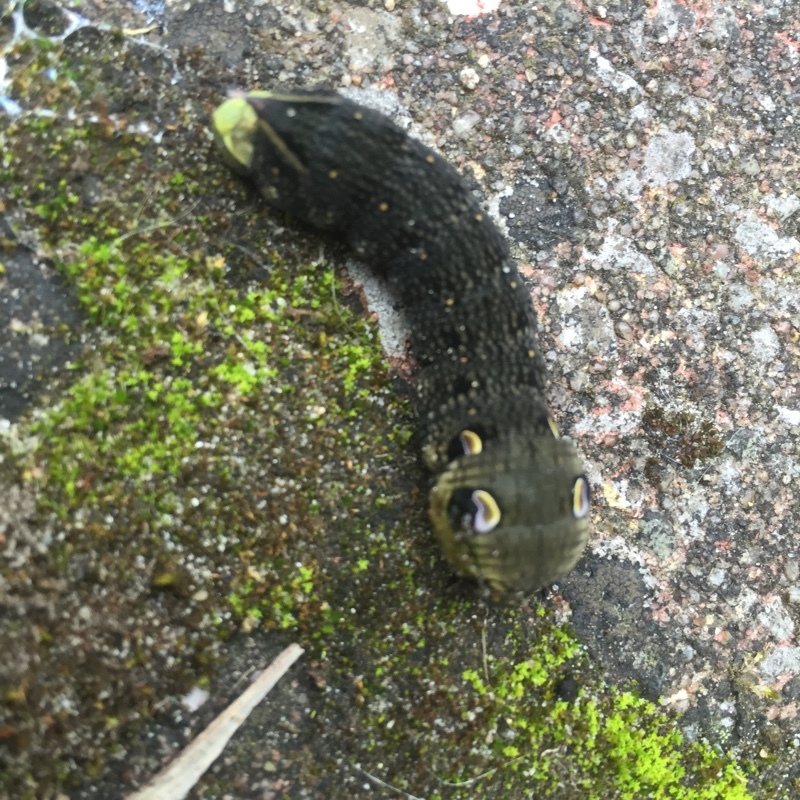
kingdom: Animalia
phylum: Arthropoda
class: Insecta
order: Lepidoptera
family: Sphingidae
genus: Deilephila
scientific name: Deilephila elpenor
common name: Elephant hawk-moth
